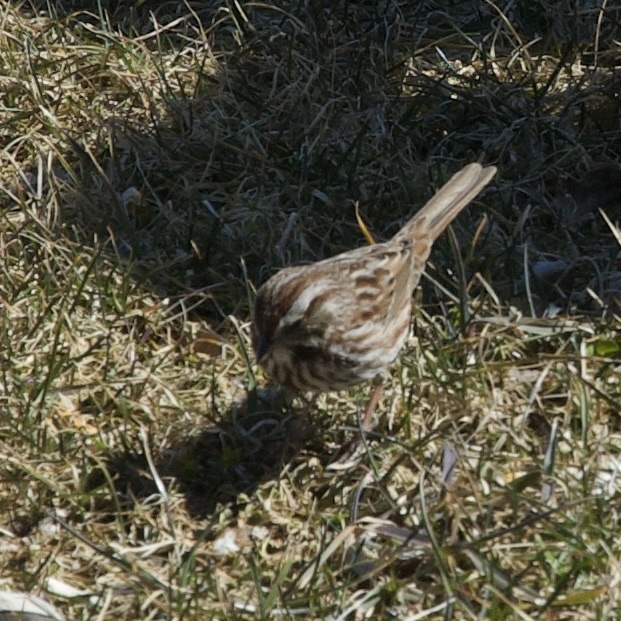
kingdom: Animalia
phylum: Chordata
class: Aves
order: Passeriformes
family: Passerellidae
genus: Melospiza
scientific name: Melospiza melodia
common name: Song sparrow
